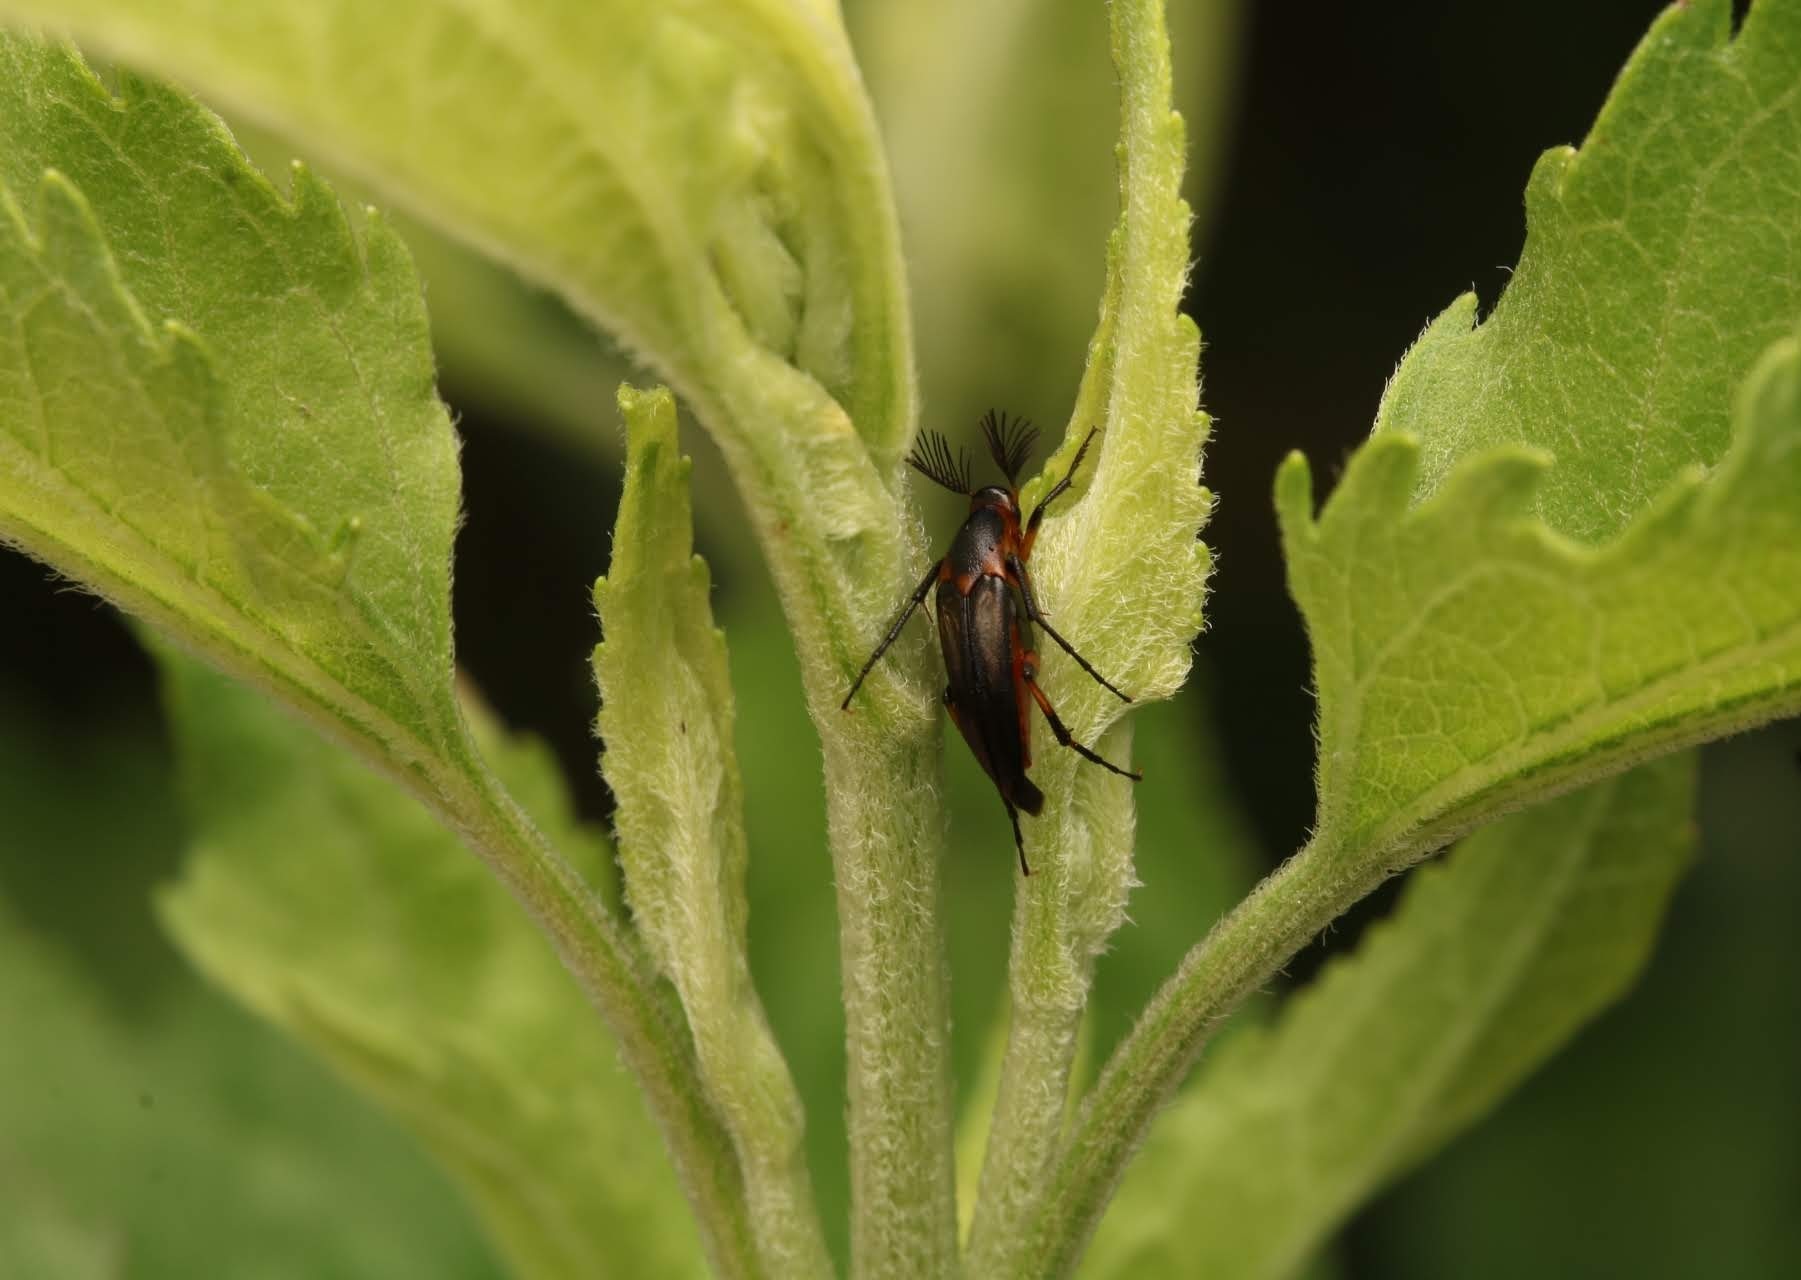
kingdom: Animalia
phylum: Arthropoda
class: Insecta
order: Coleoptera
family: Ripiphoridae
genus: Macrosiagon
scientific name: Macrosiagon limbatum
